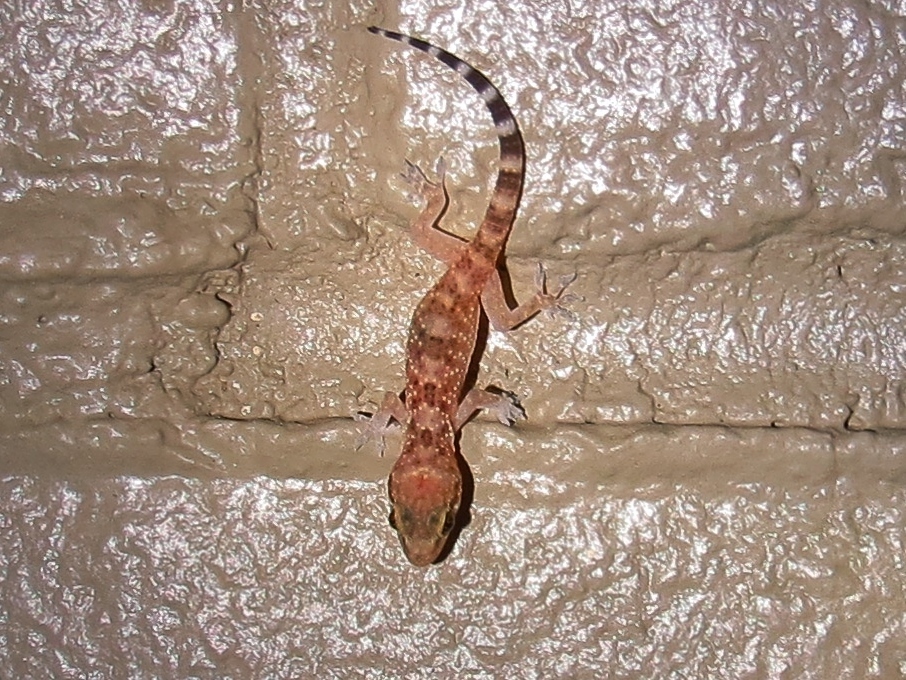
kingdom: Animalia
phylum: Chordata
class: Squamata
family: Gekkonidae
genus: Hemidactylus
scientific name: Hemidactylus turcicus
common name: Turkish gecko
